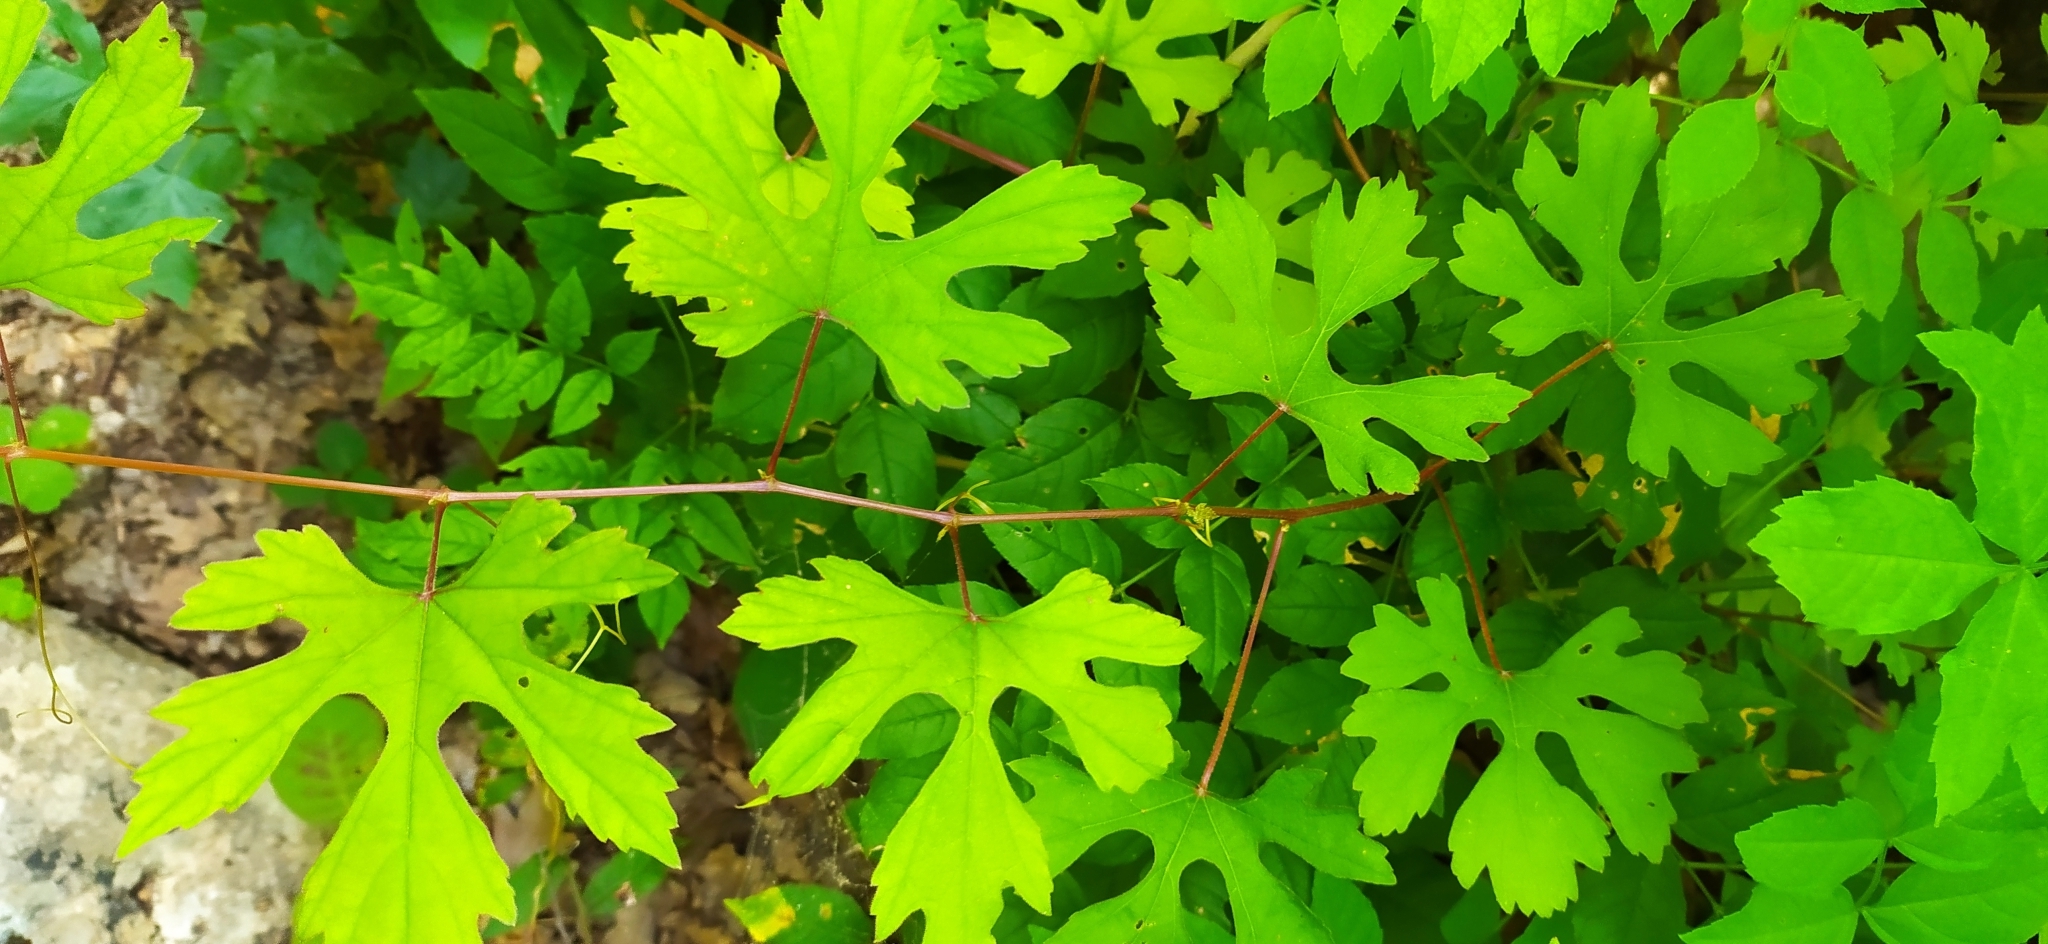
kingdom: Plantae
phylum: Tracheophyta
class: Magnoliopsida
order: Vitales
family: Vitaceae
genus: Vitis
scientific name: Vitis vinifera
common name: Grape-vine
